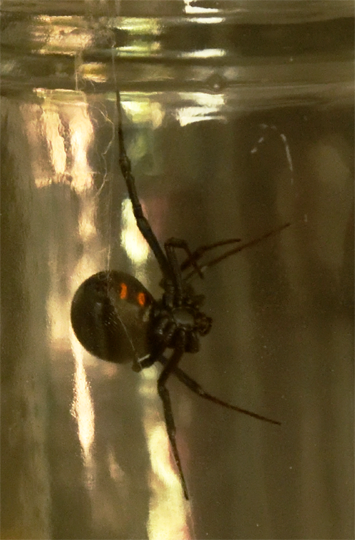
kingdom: Animalia
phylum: Arthropoda
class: Arachnida
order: Araneae
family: Theridiidae
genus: Latrodectus
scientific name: Latrodectus hesperus
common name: Western black widow
